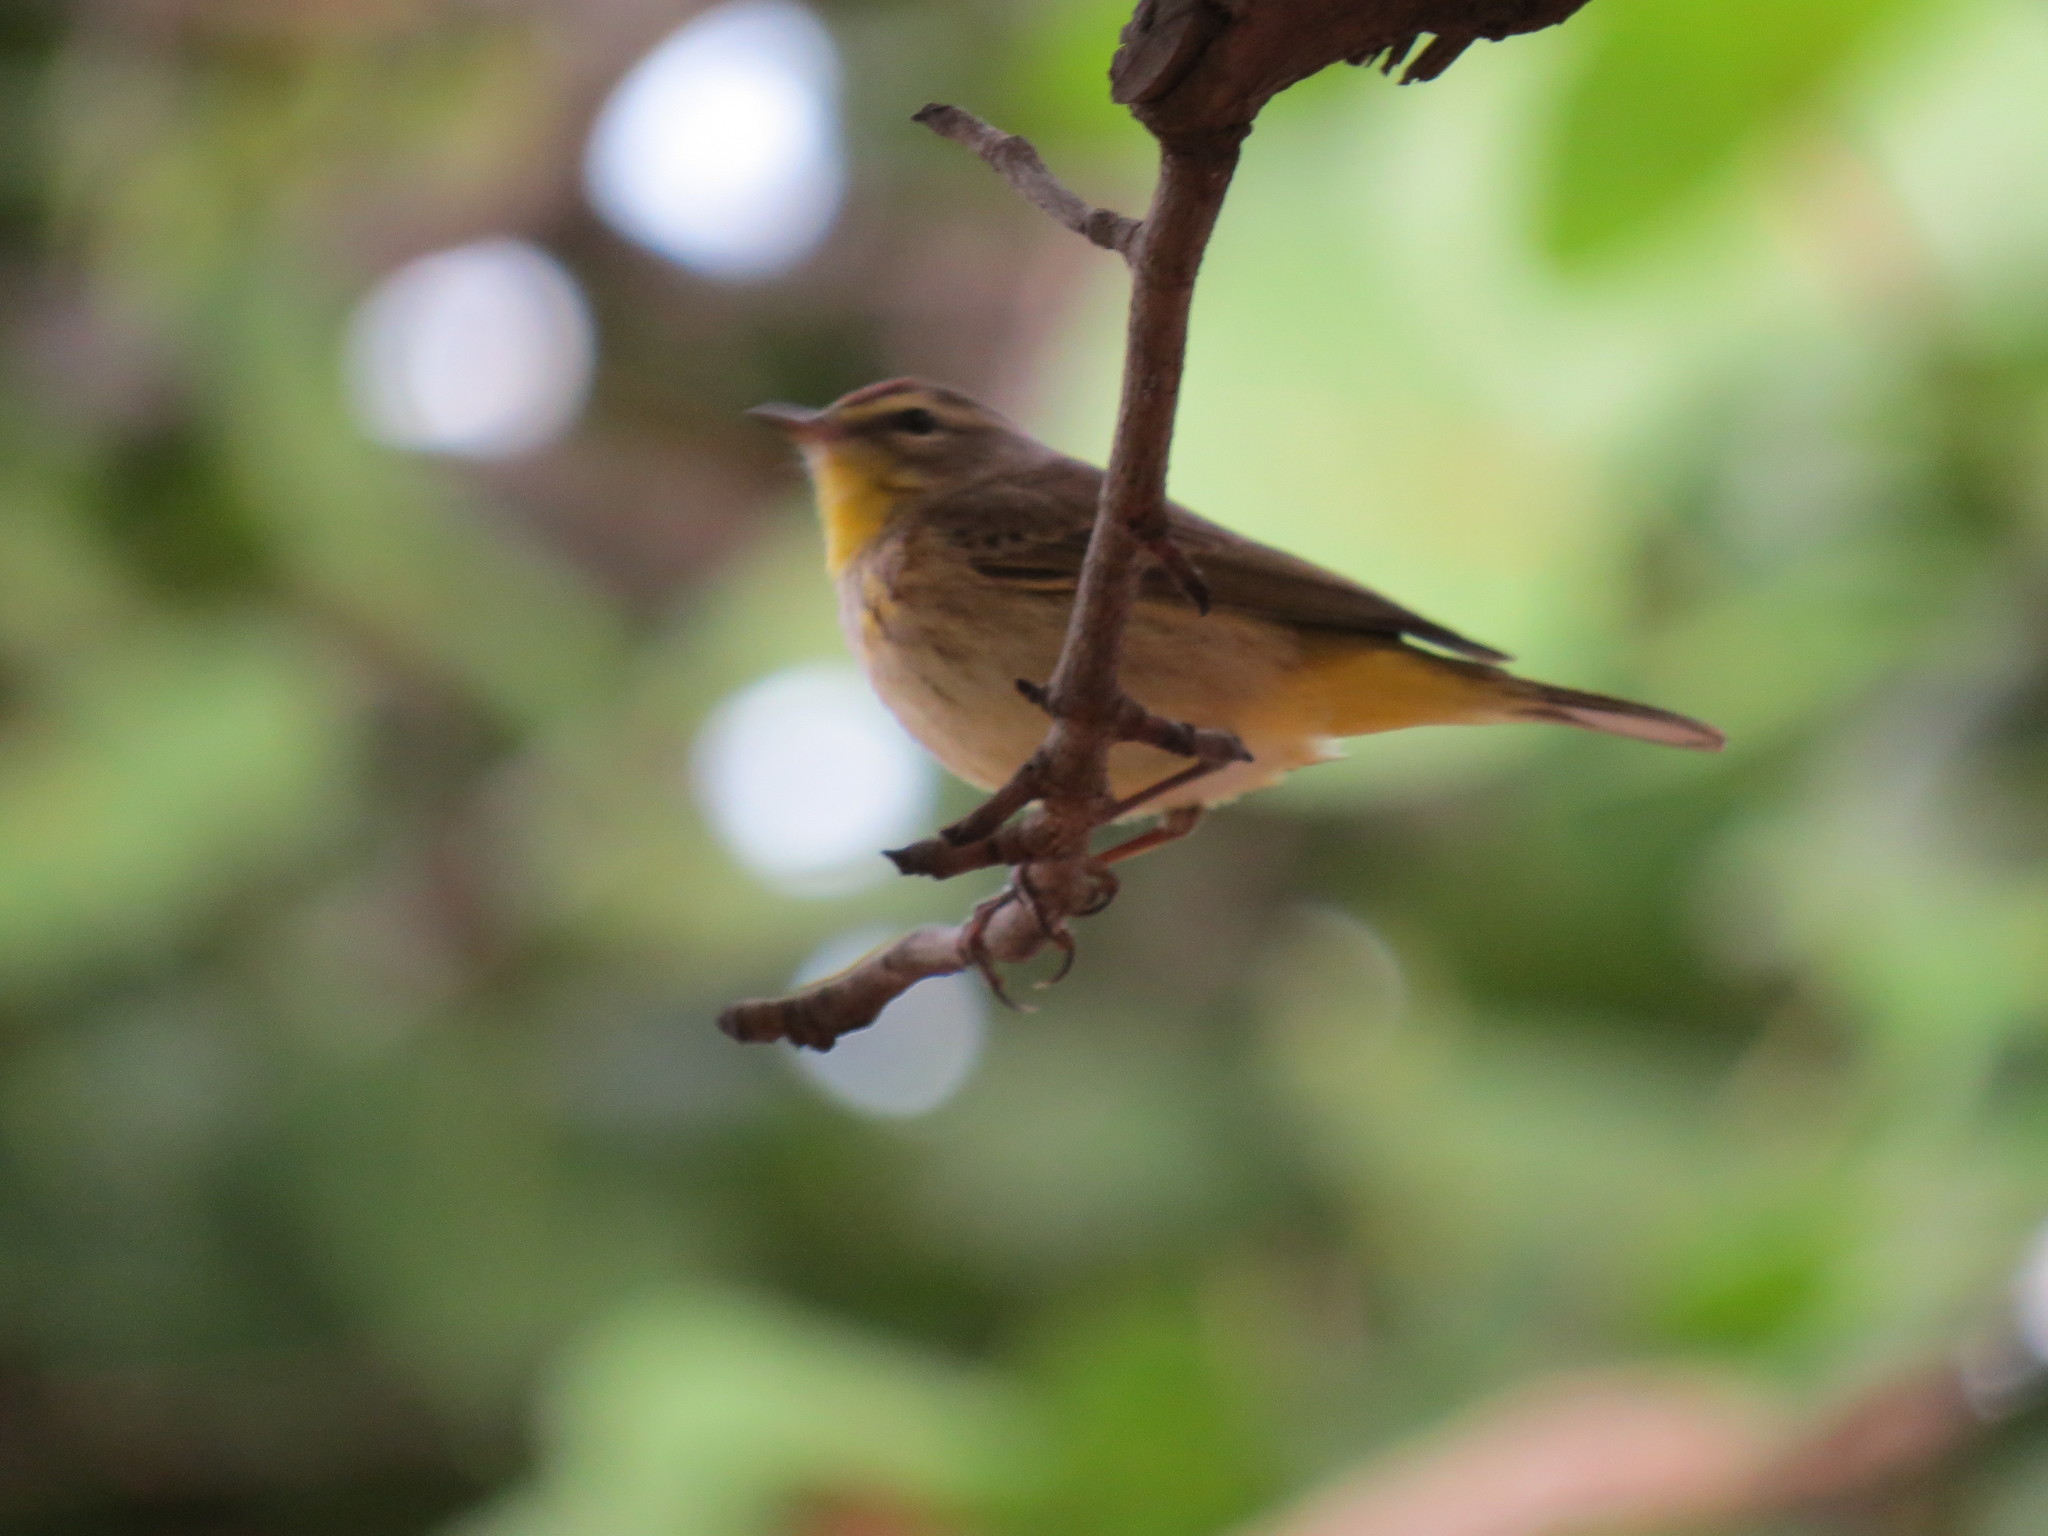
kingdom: Animalia
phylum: Chordata
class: Aves
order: Passeriformes
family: Parulidae
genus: Setophaga
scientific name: Setophaga palmarum
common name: Palm warbler
